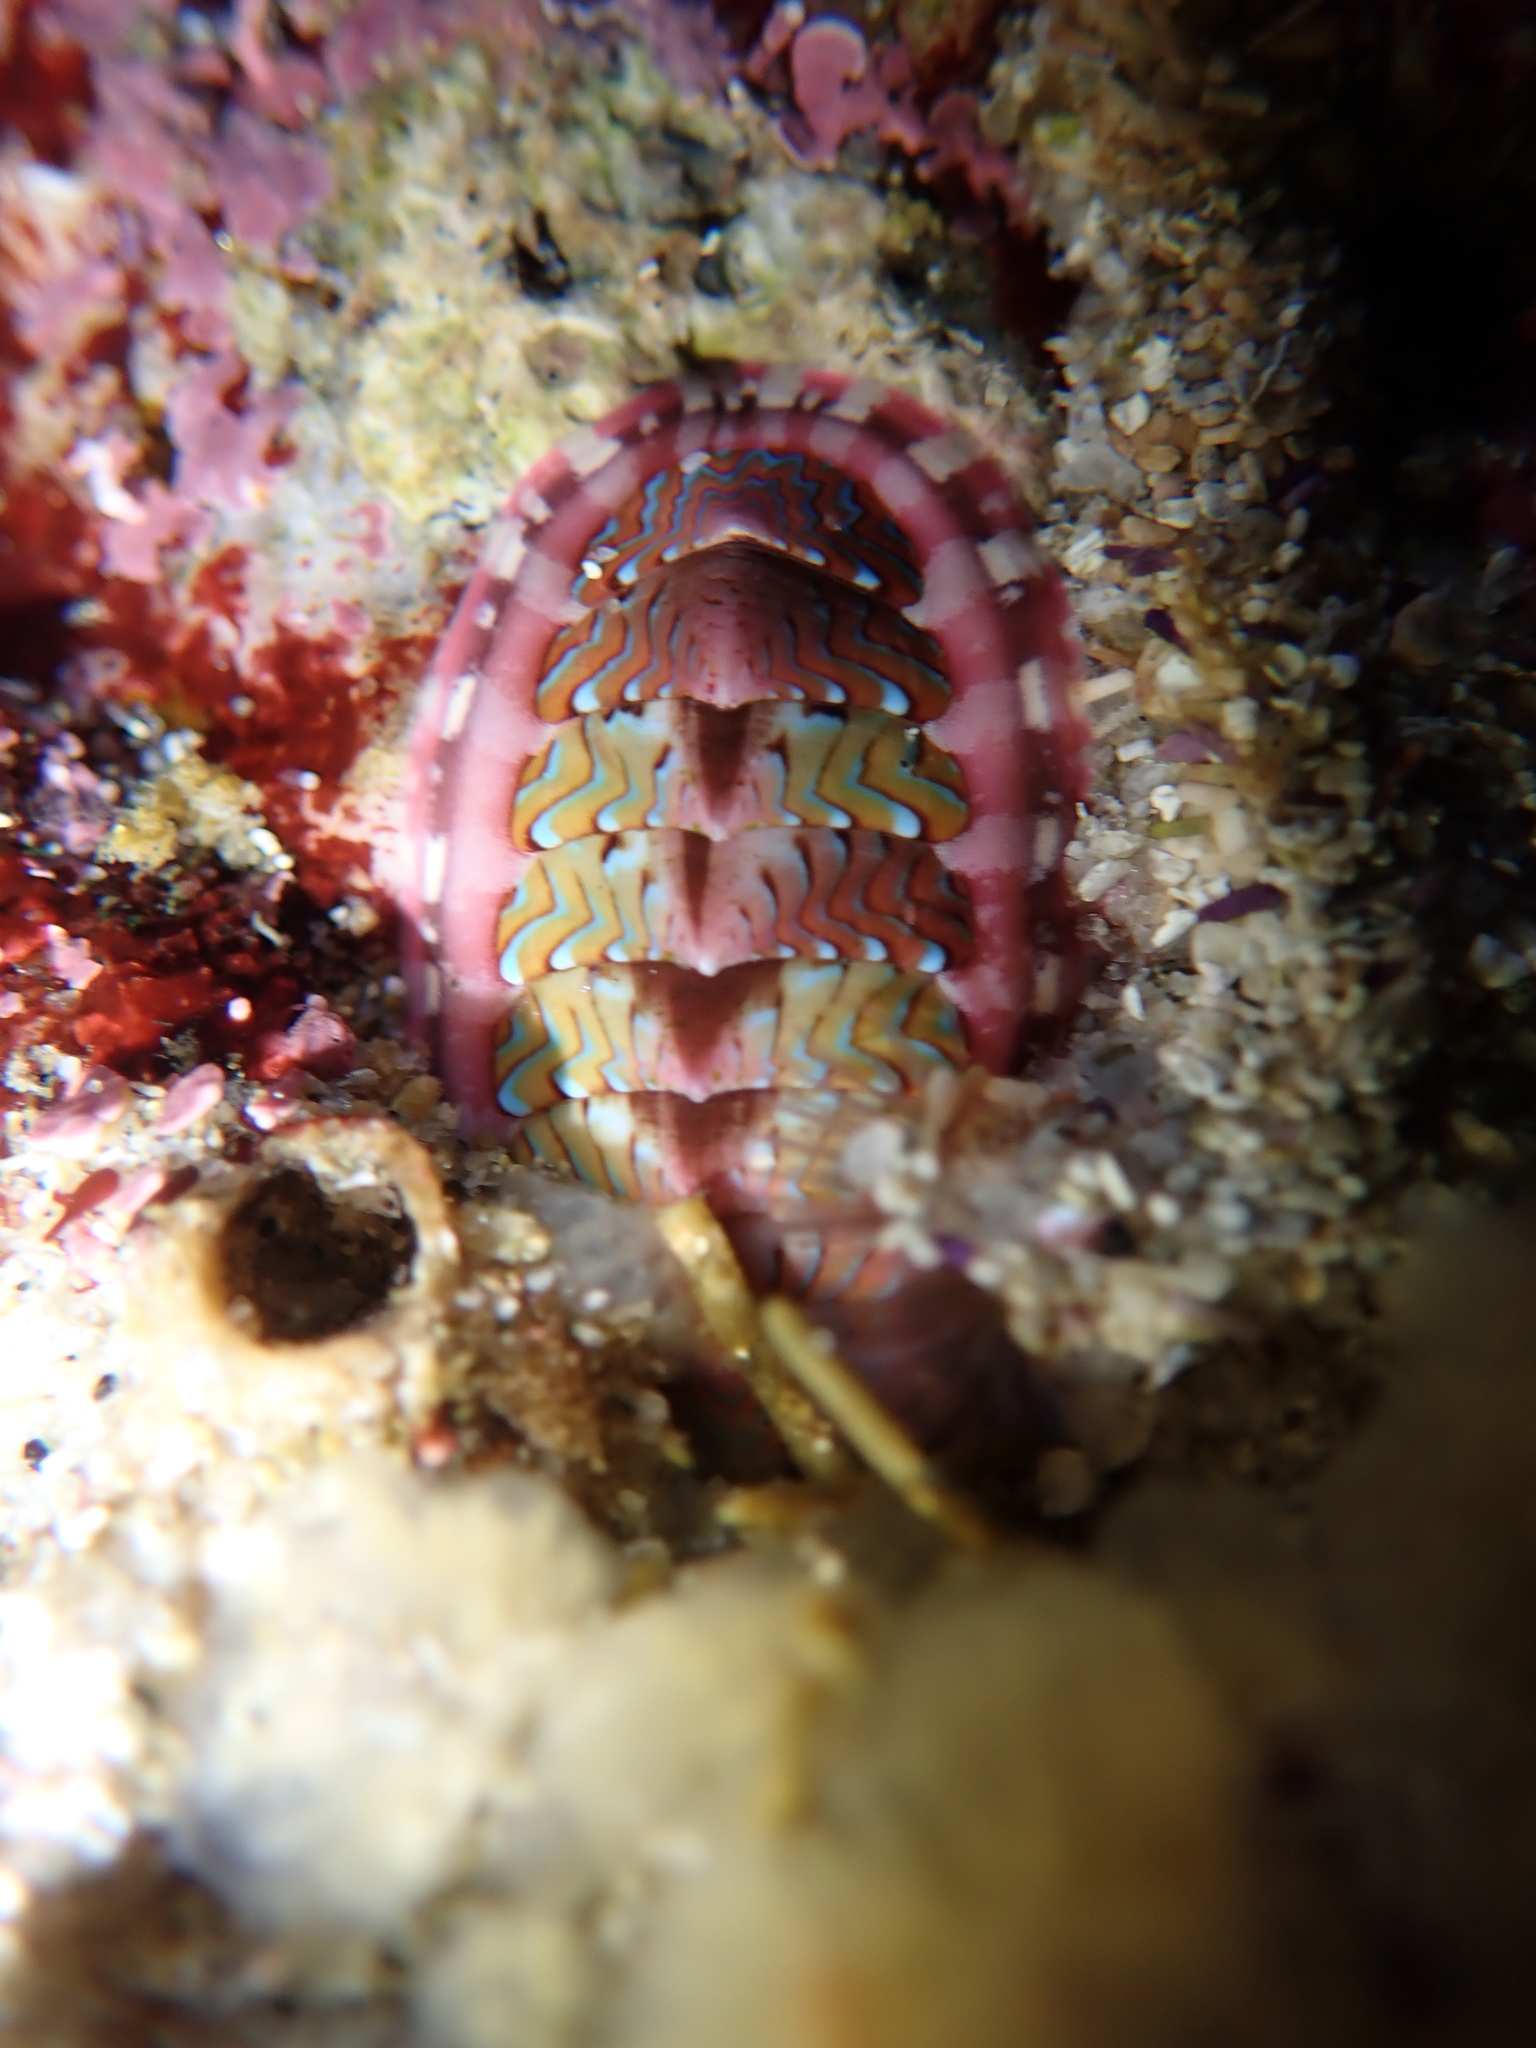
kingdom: Animalia
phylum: Mollusca
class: Polyplacophora
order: Chitonida
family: Tonicellidae
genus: Tonicella
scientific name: Tonicella lokii
